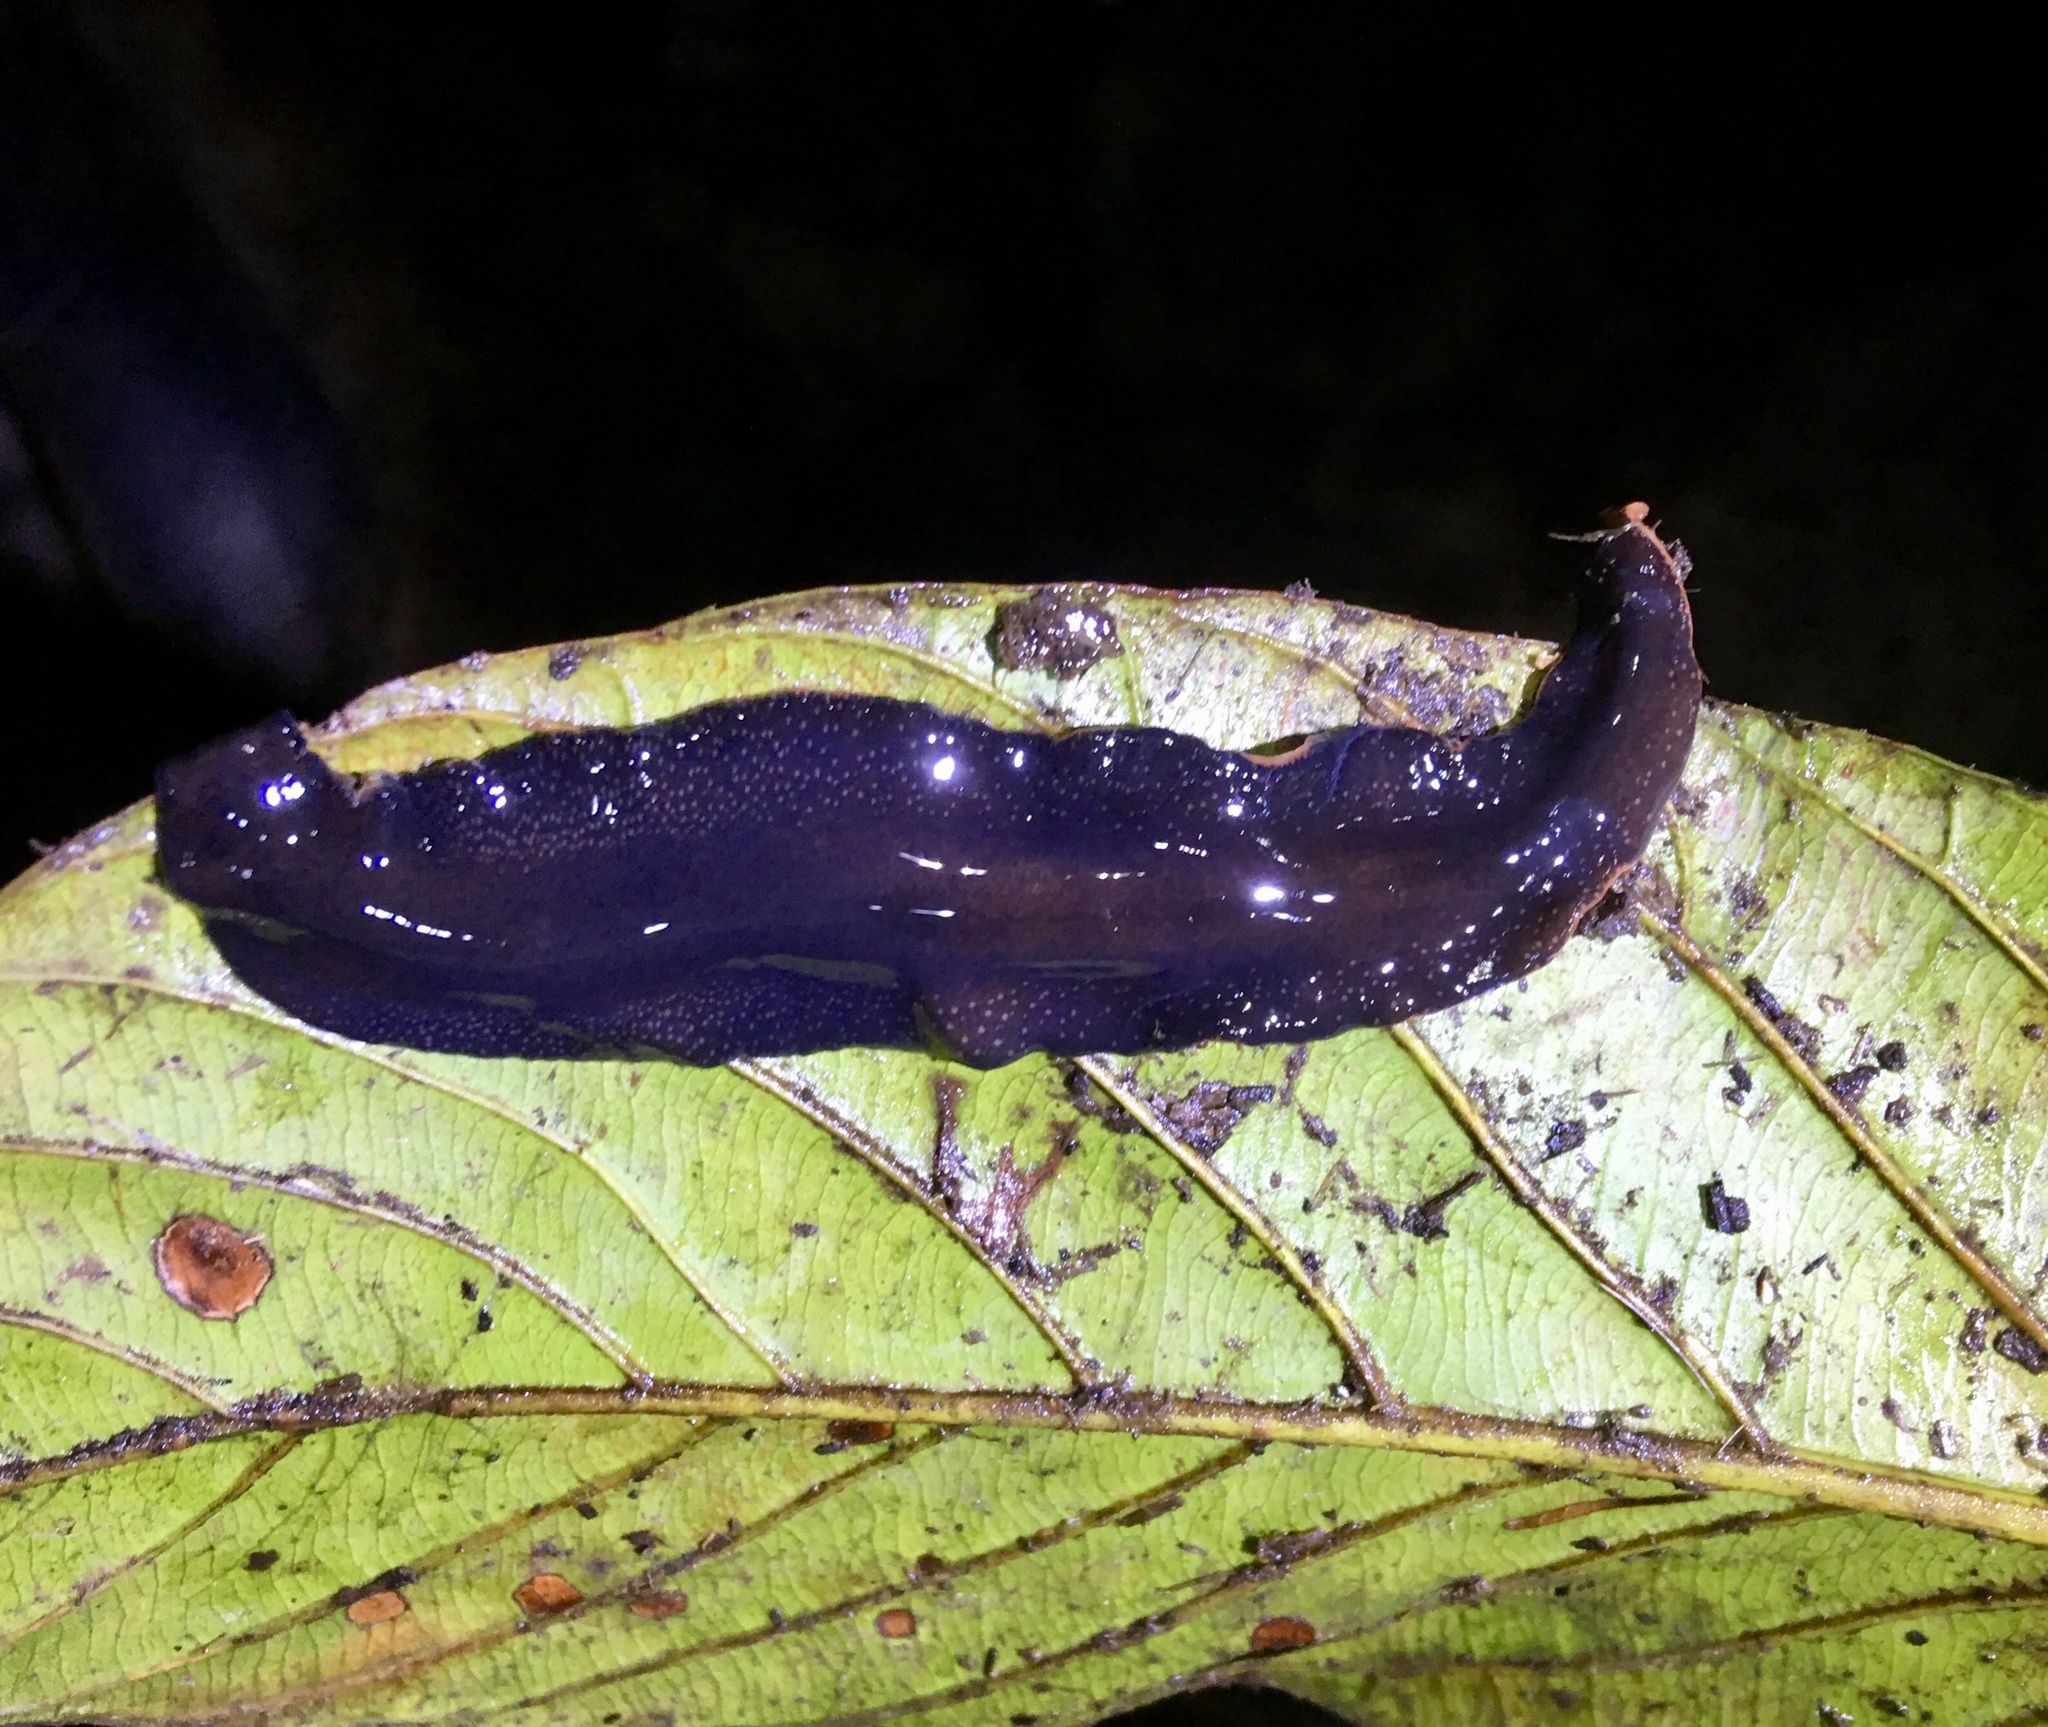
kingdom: Animalia
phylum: Platyhelminthes
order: Tricladida
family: Geoplanidae
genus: Geoplana
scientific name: Geoplana multipunctata
